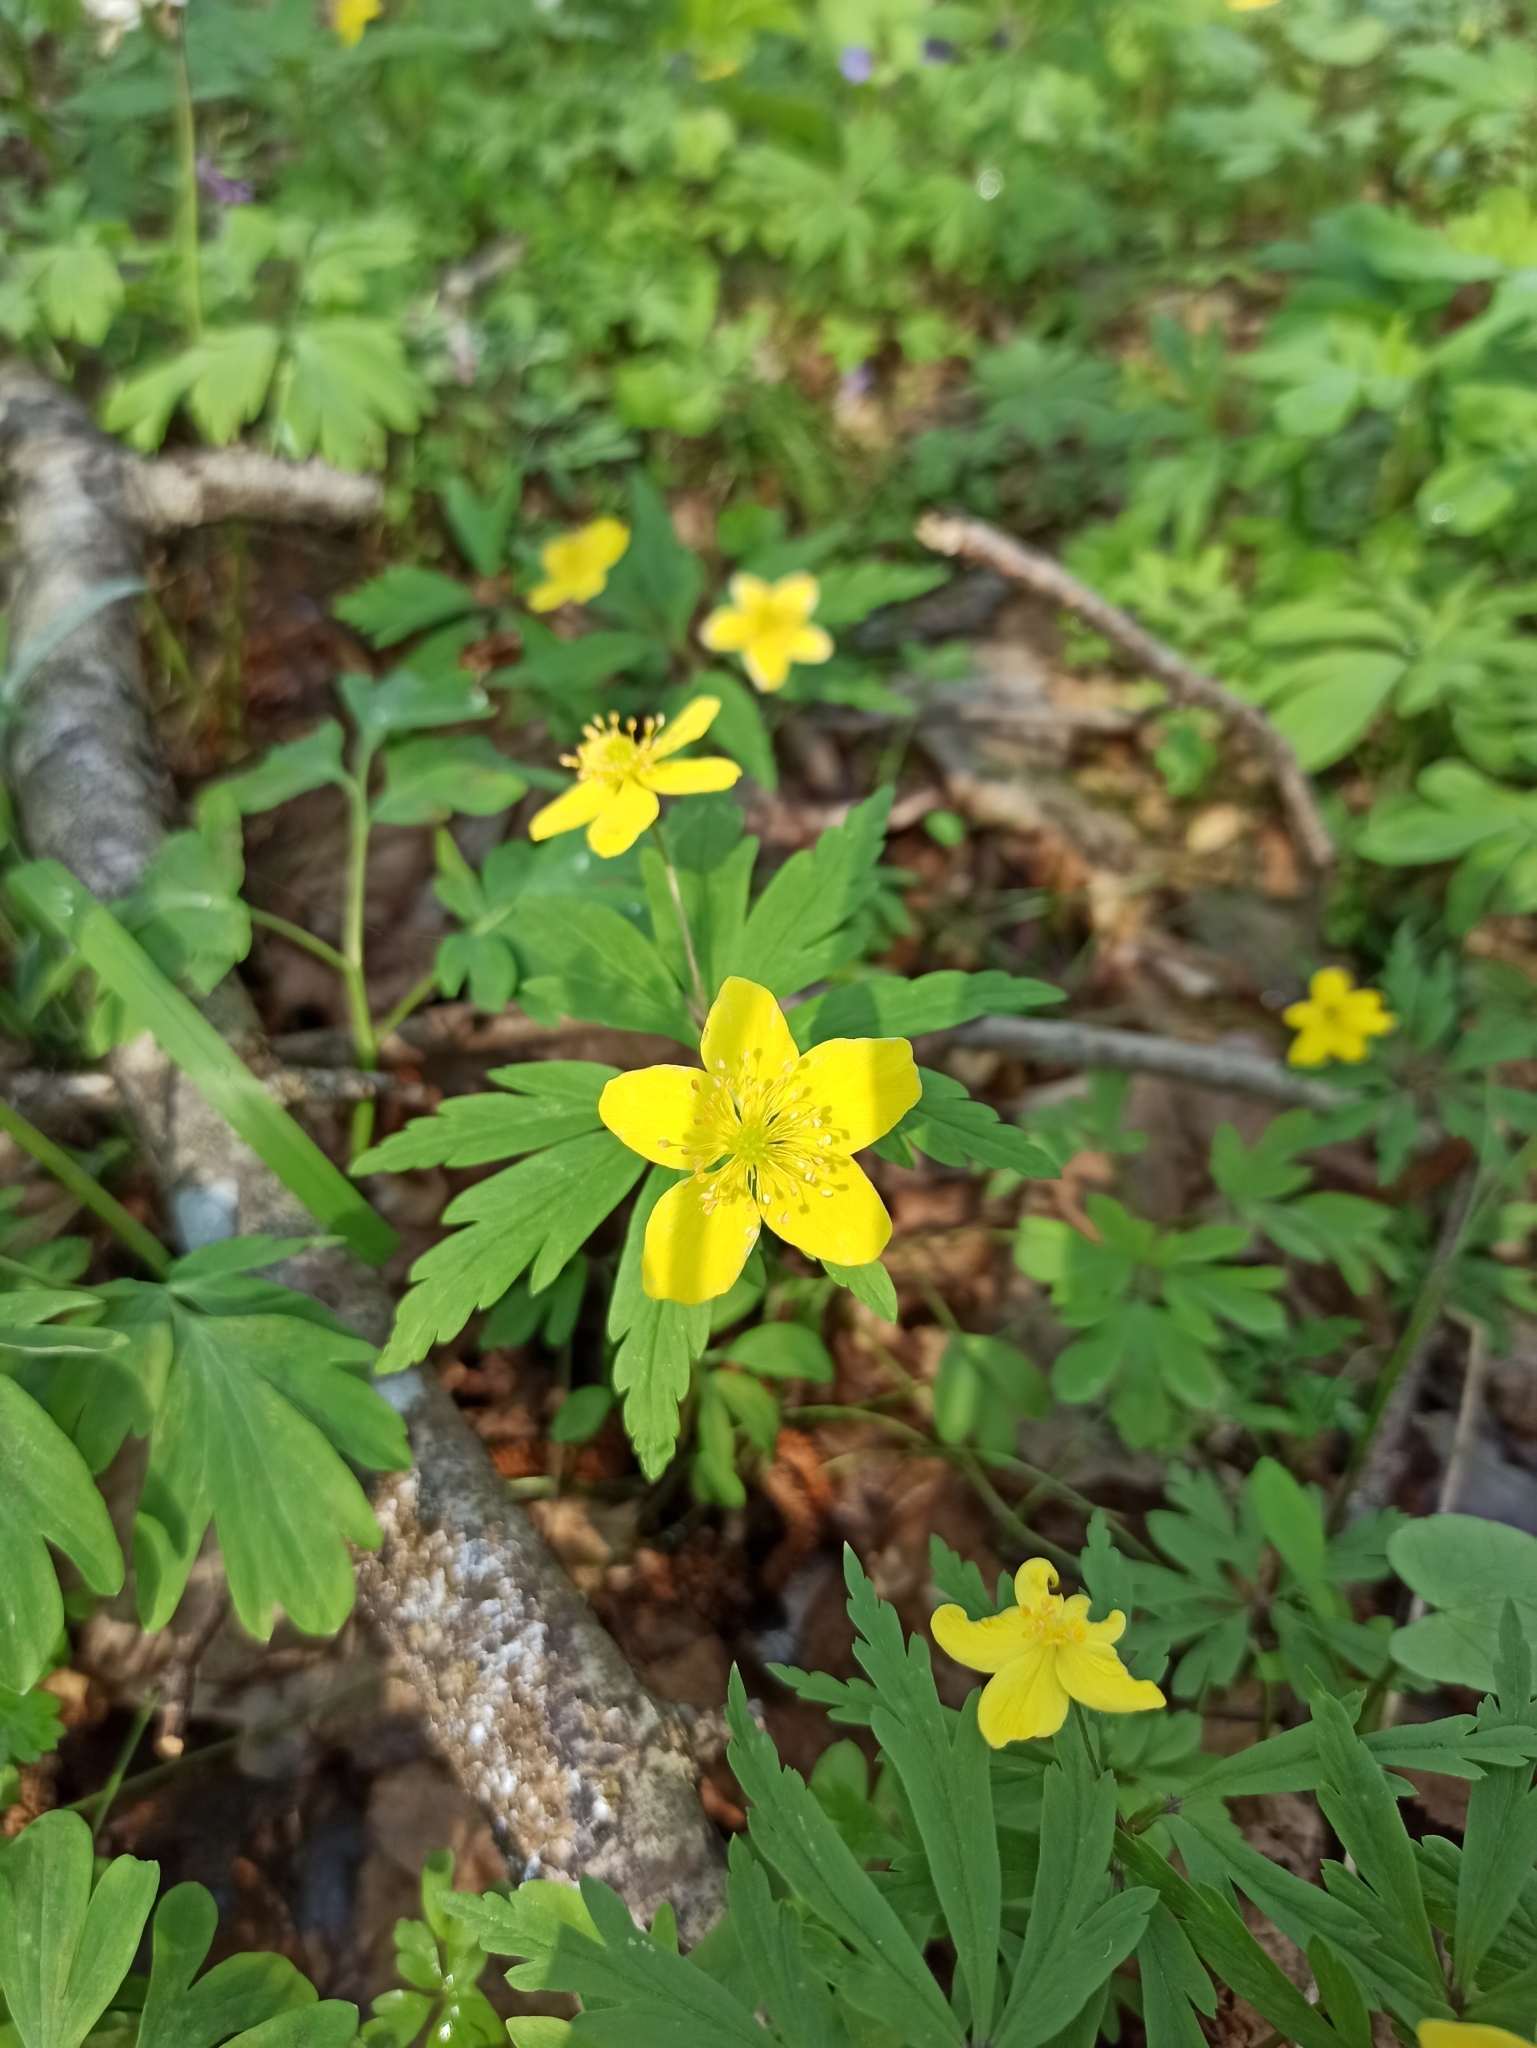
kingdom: Plantae
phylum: Tracheophyta
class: Magnoliopsida
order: Ranunculales
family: Ranunculaceae
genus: Anemone
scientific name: Anemone ranunculoides
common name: Yellow anemone
